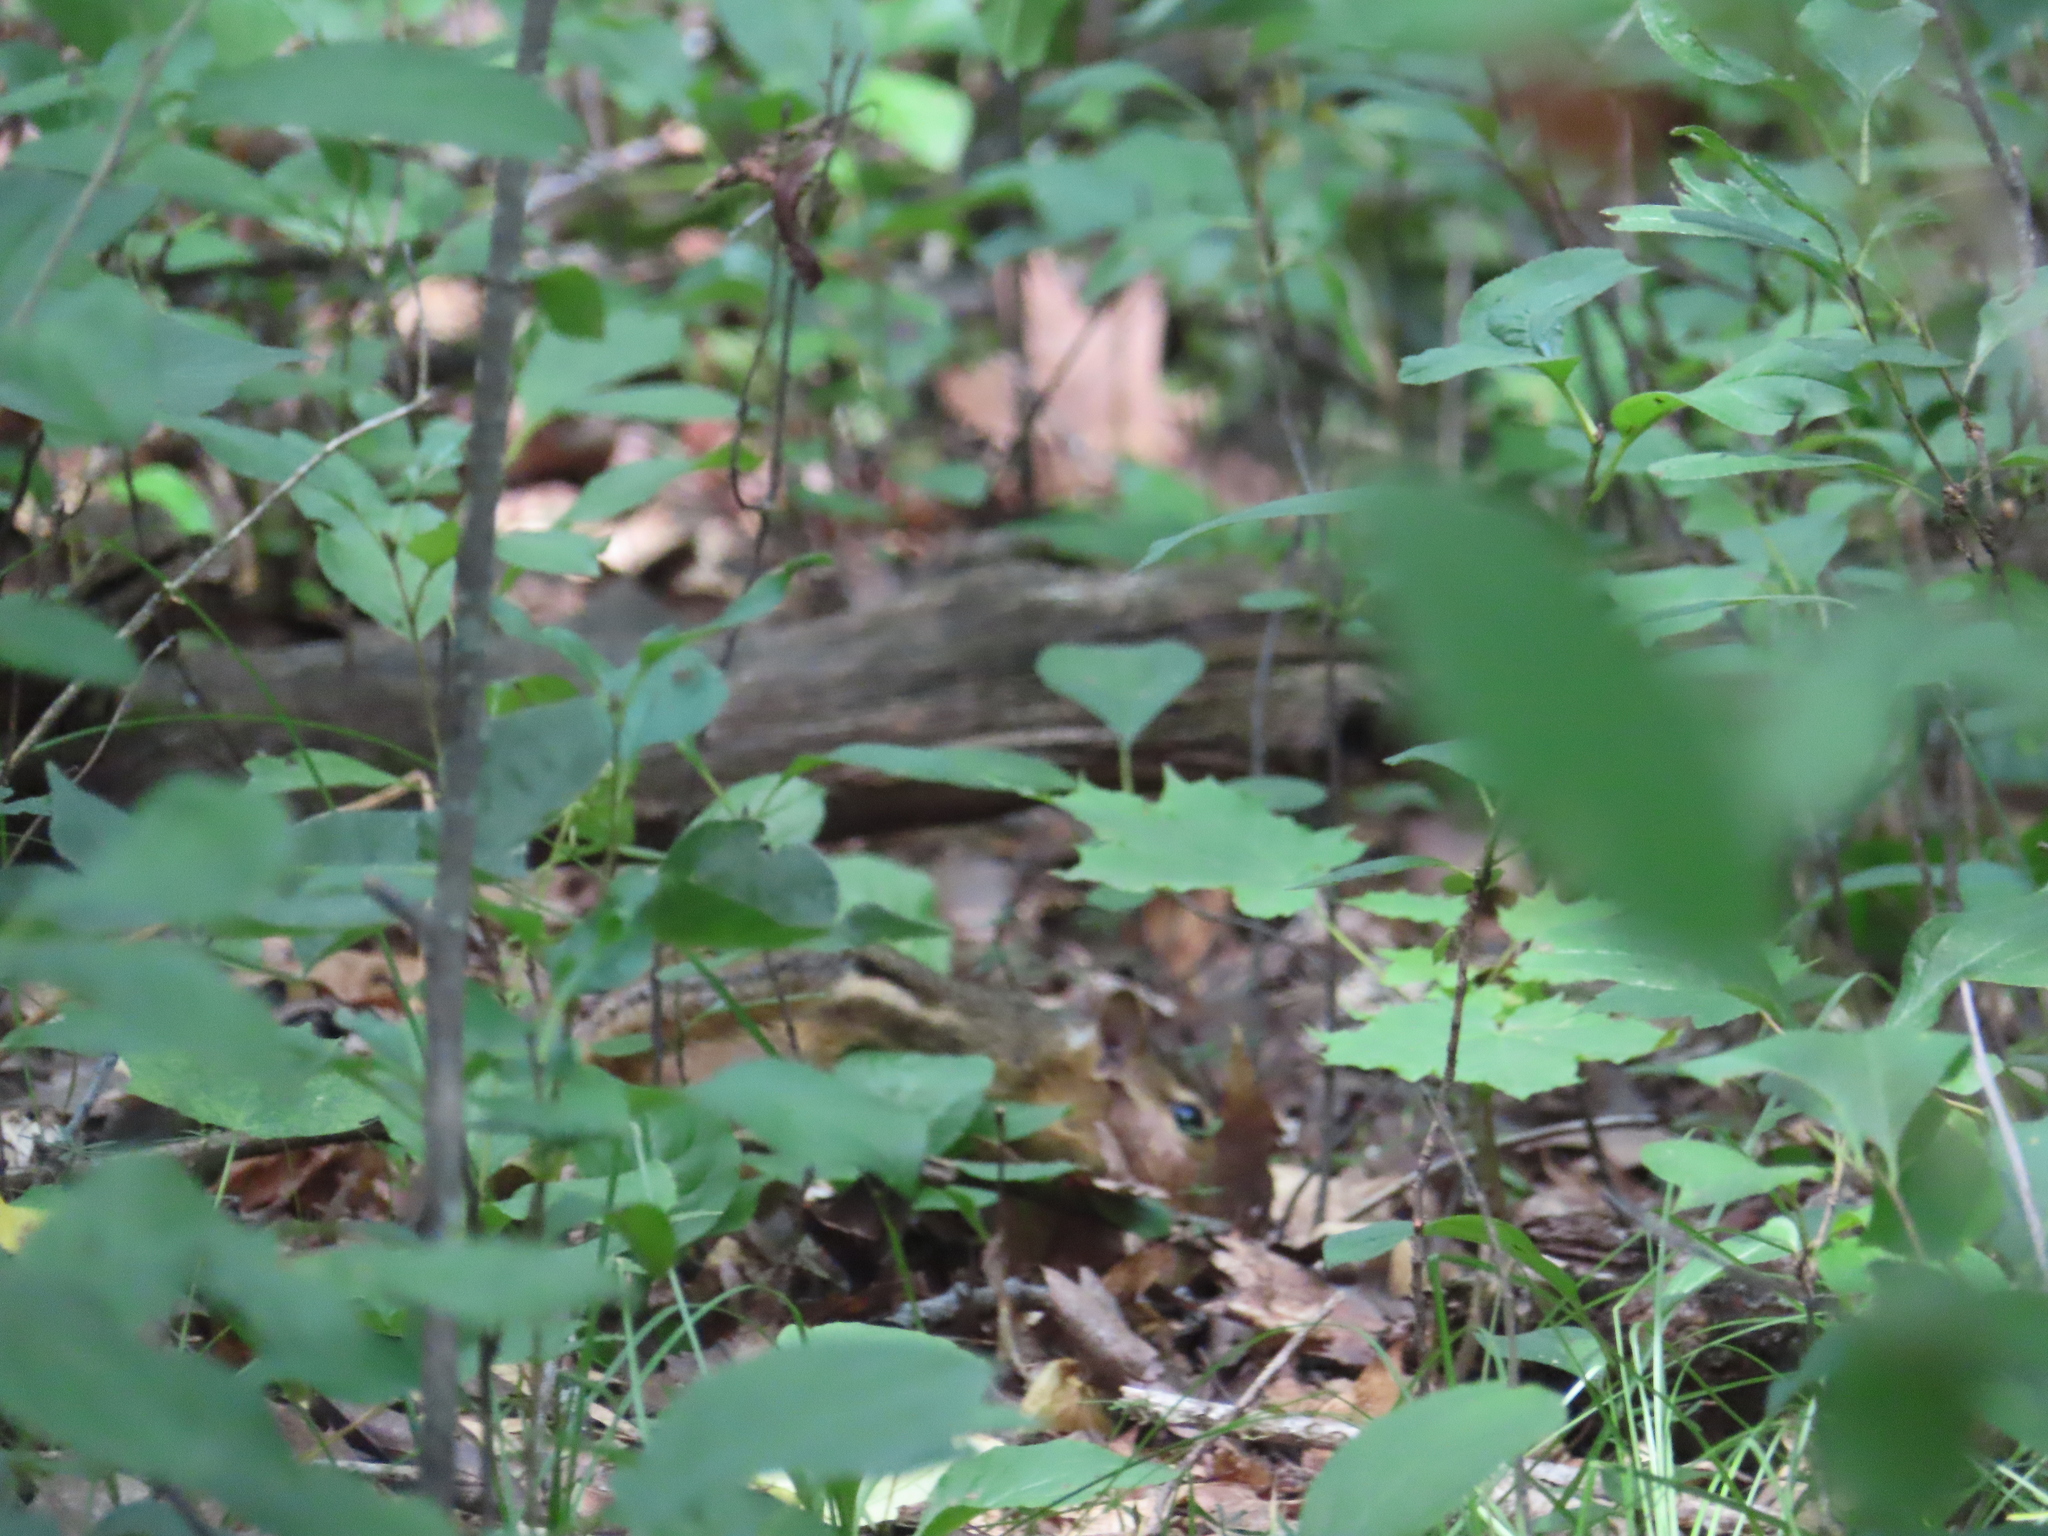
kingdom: Animalia
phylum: Chordata
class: Mammalia
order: Rodentia
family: Sciuridae
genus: Tamias
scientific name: Tamias striatus
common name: Eastern chipmunk
